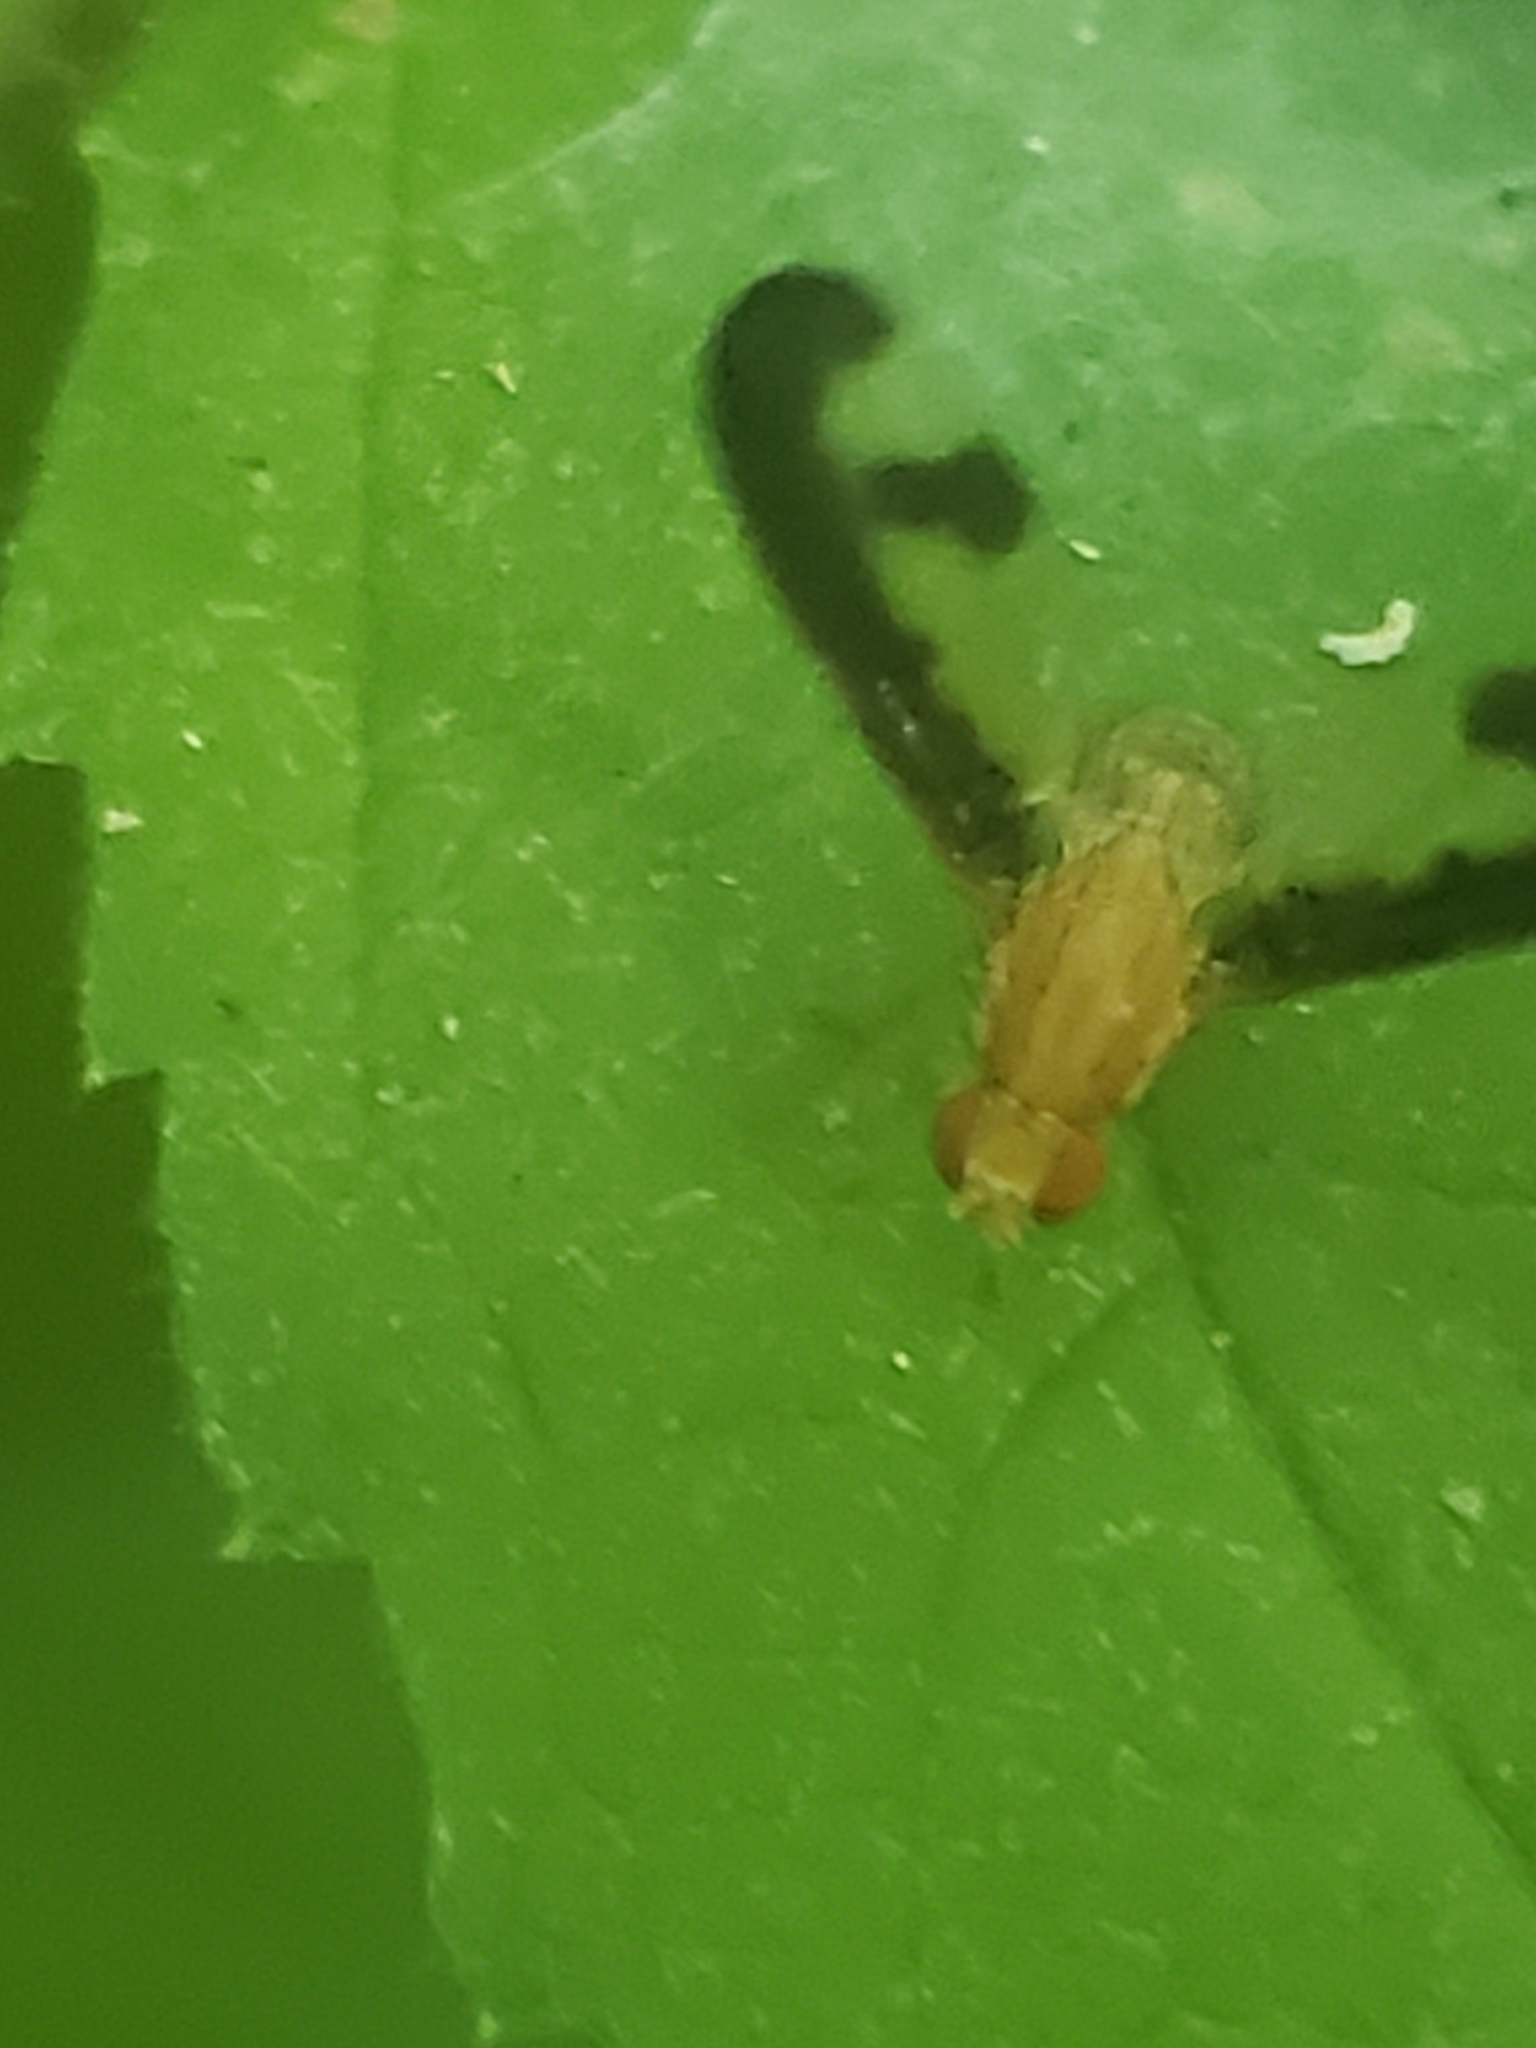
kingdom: Animalia
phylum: Arthropoda
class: Insecta
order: Diptera
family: Pallopteridae
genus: Toxonevra
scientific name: Toxonevra superba
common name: Antlered flutter fly
